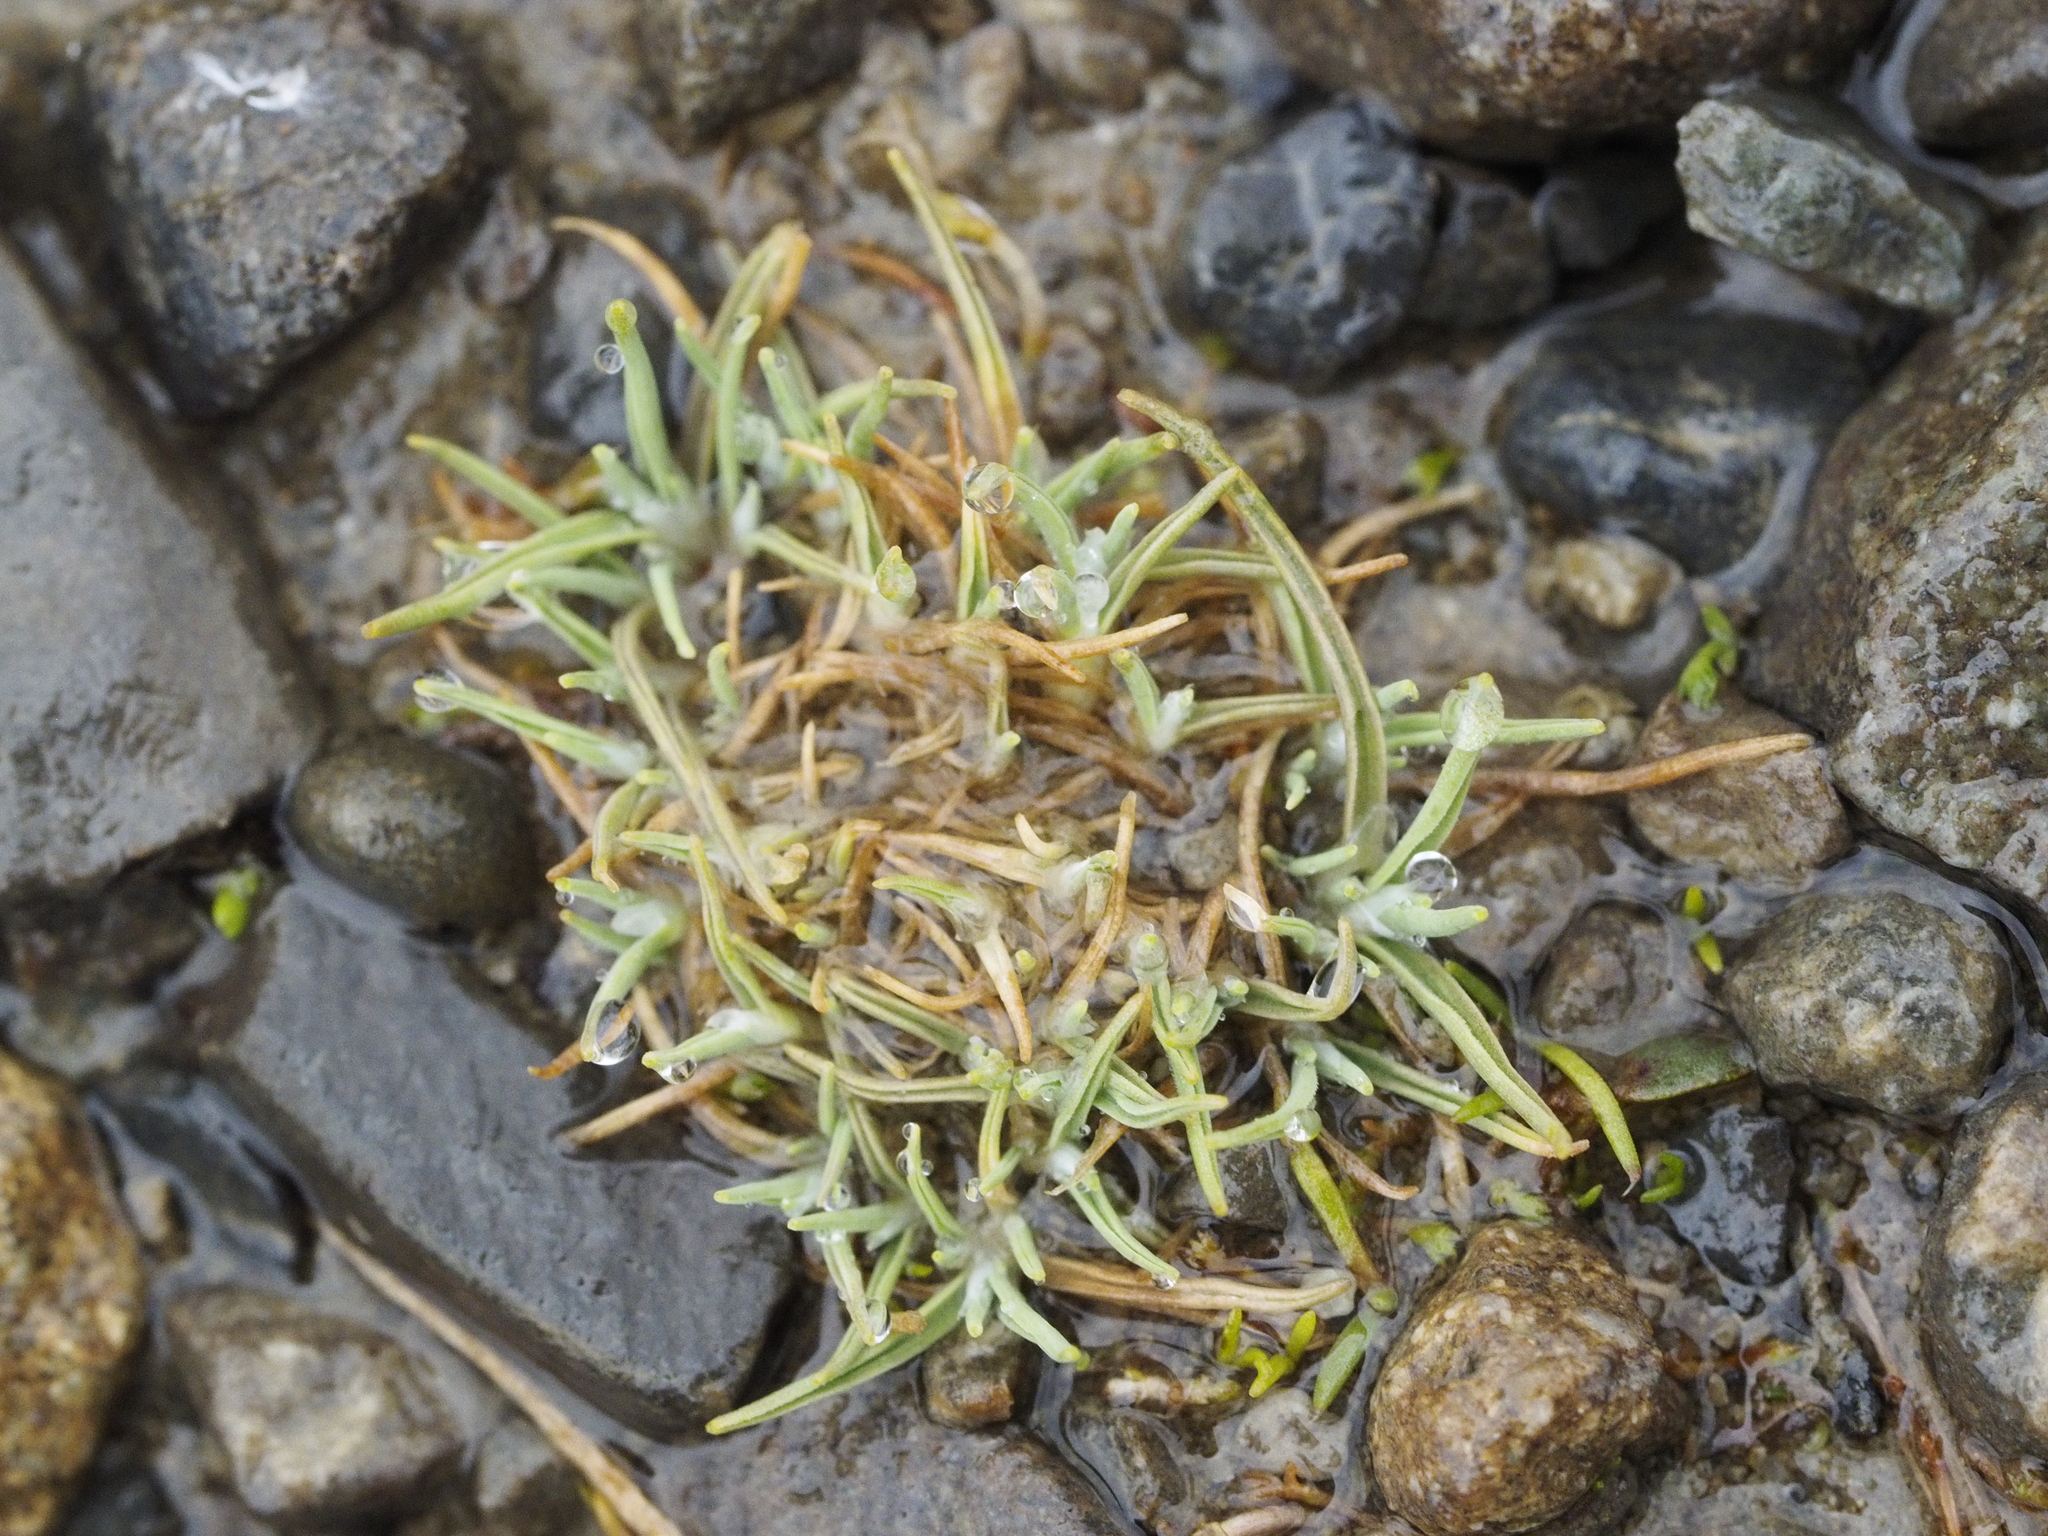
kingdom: Plantae
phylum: Tracheophyta
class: Liliopsida
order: Poales
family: Poaceae
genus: Agrostis
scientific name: Agrostis muscosa
